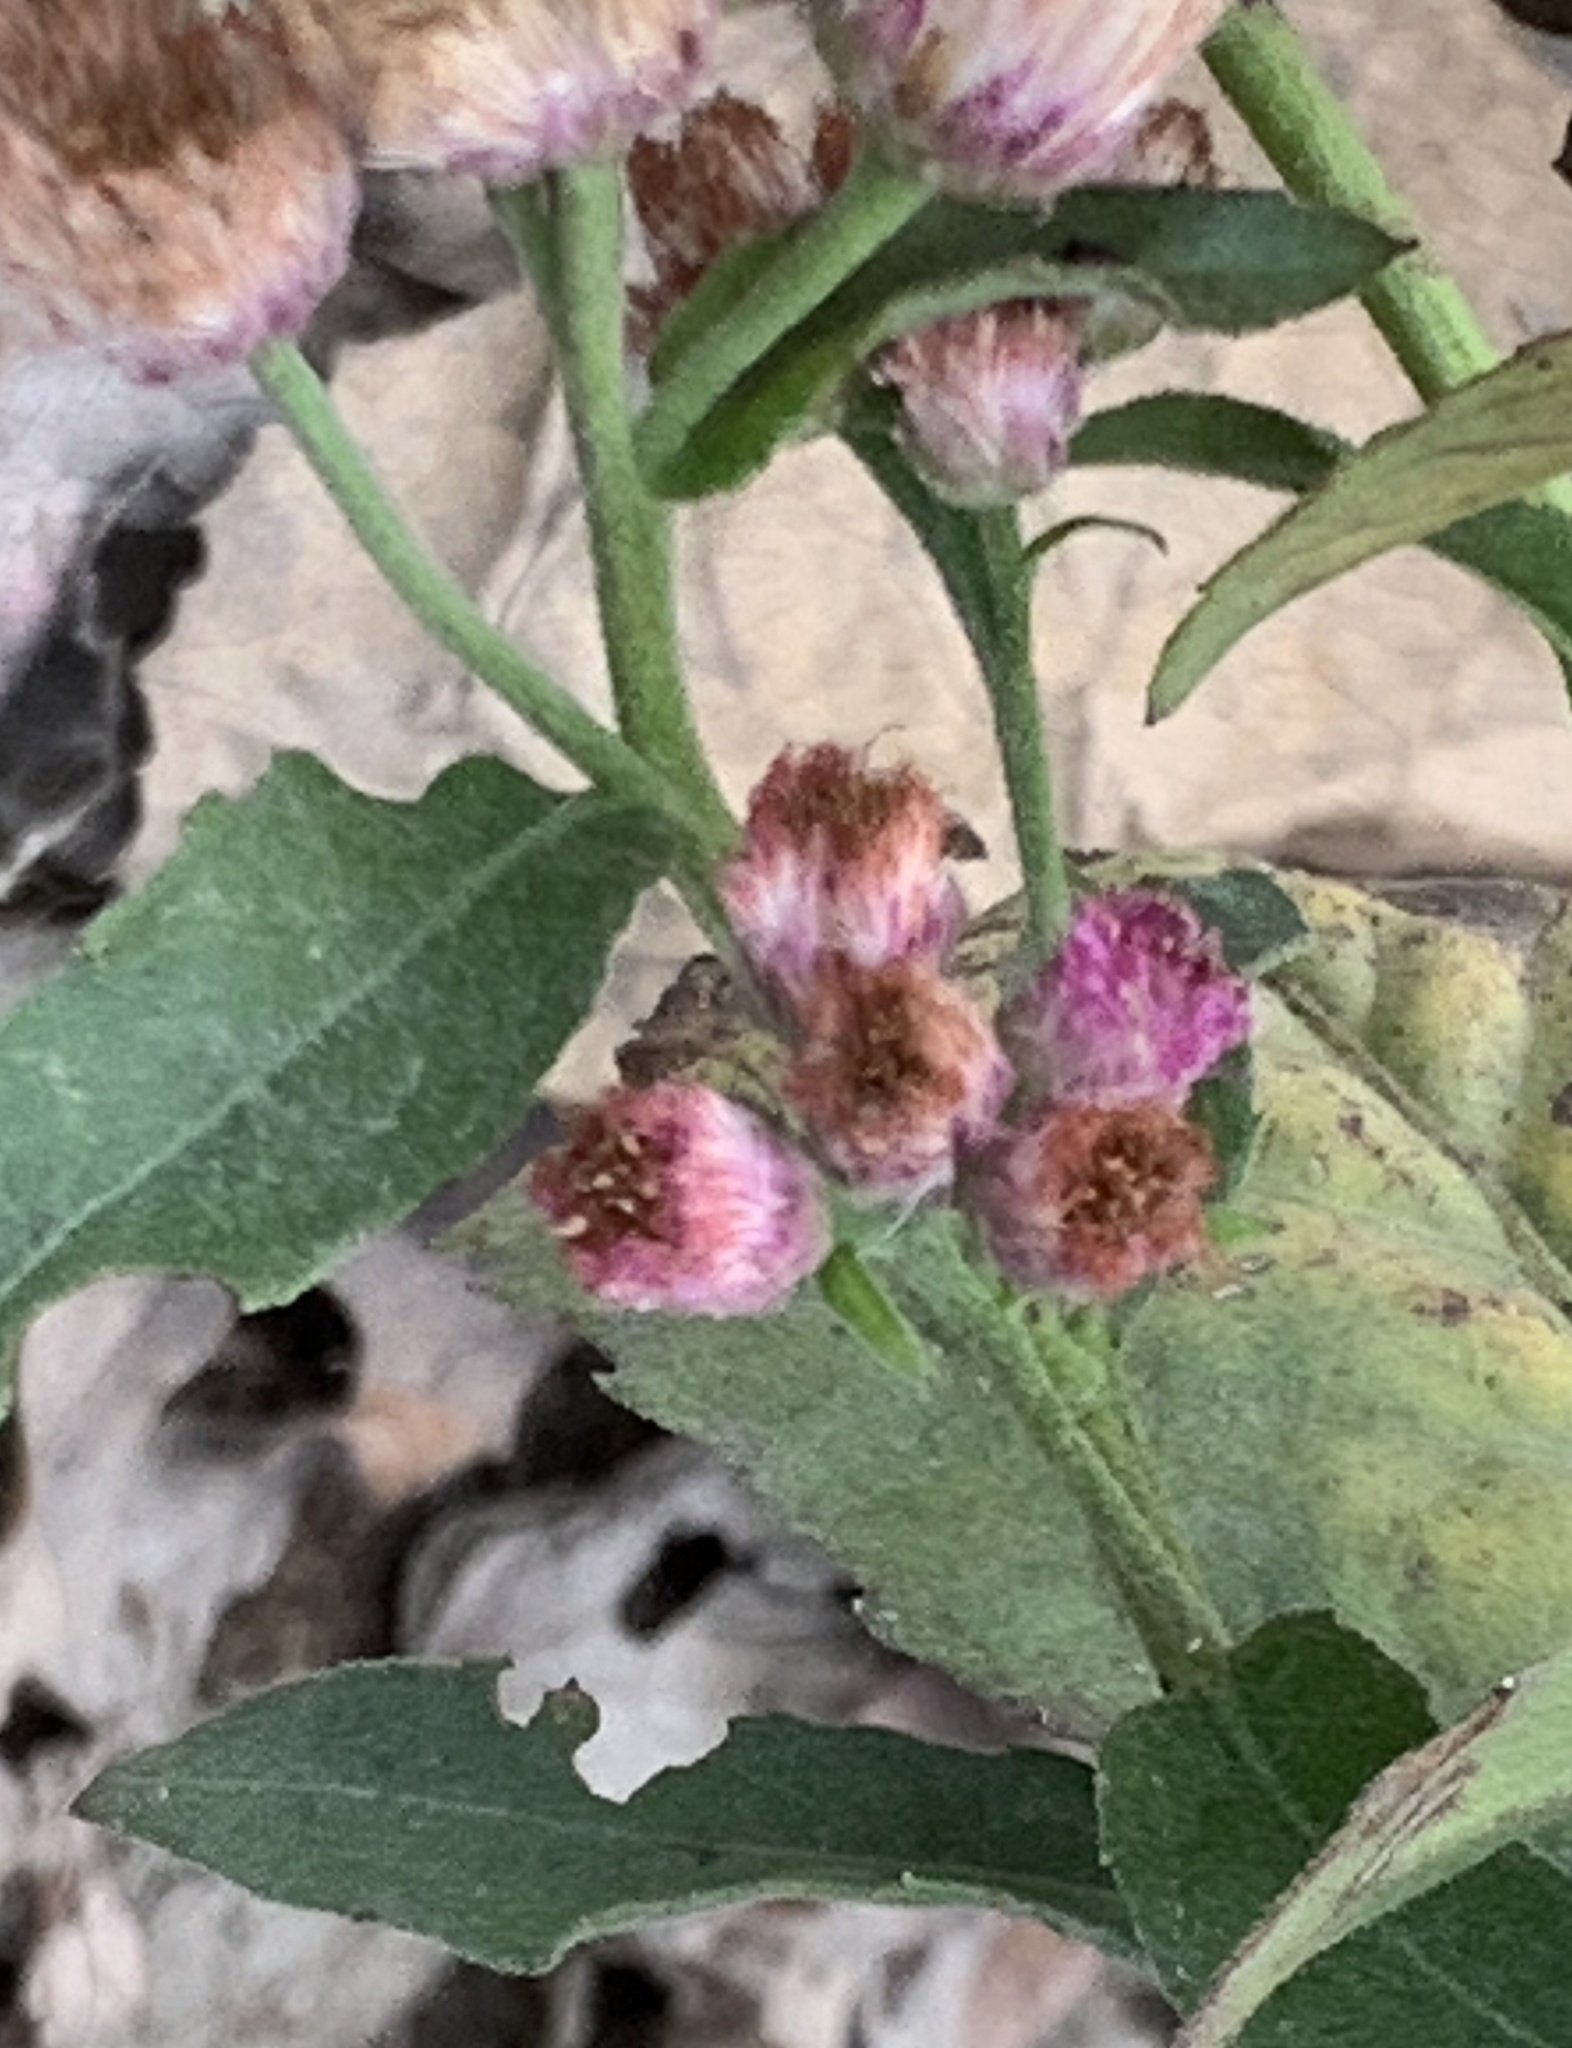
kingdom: Plantae
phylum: Tracheophyta
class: Magnoliopsida
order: Asterales
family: Asteraceae
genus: Pluchea
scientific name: Pluchea odorata
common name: Saltmarsh fleabane
